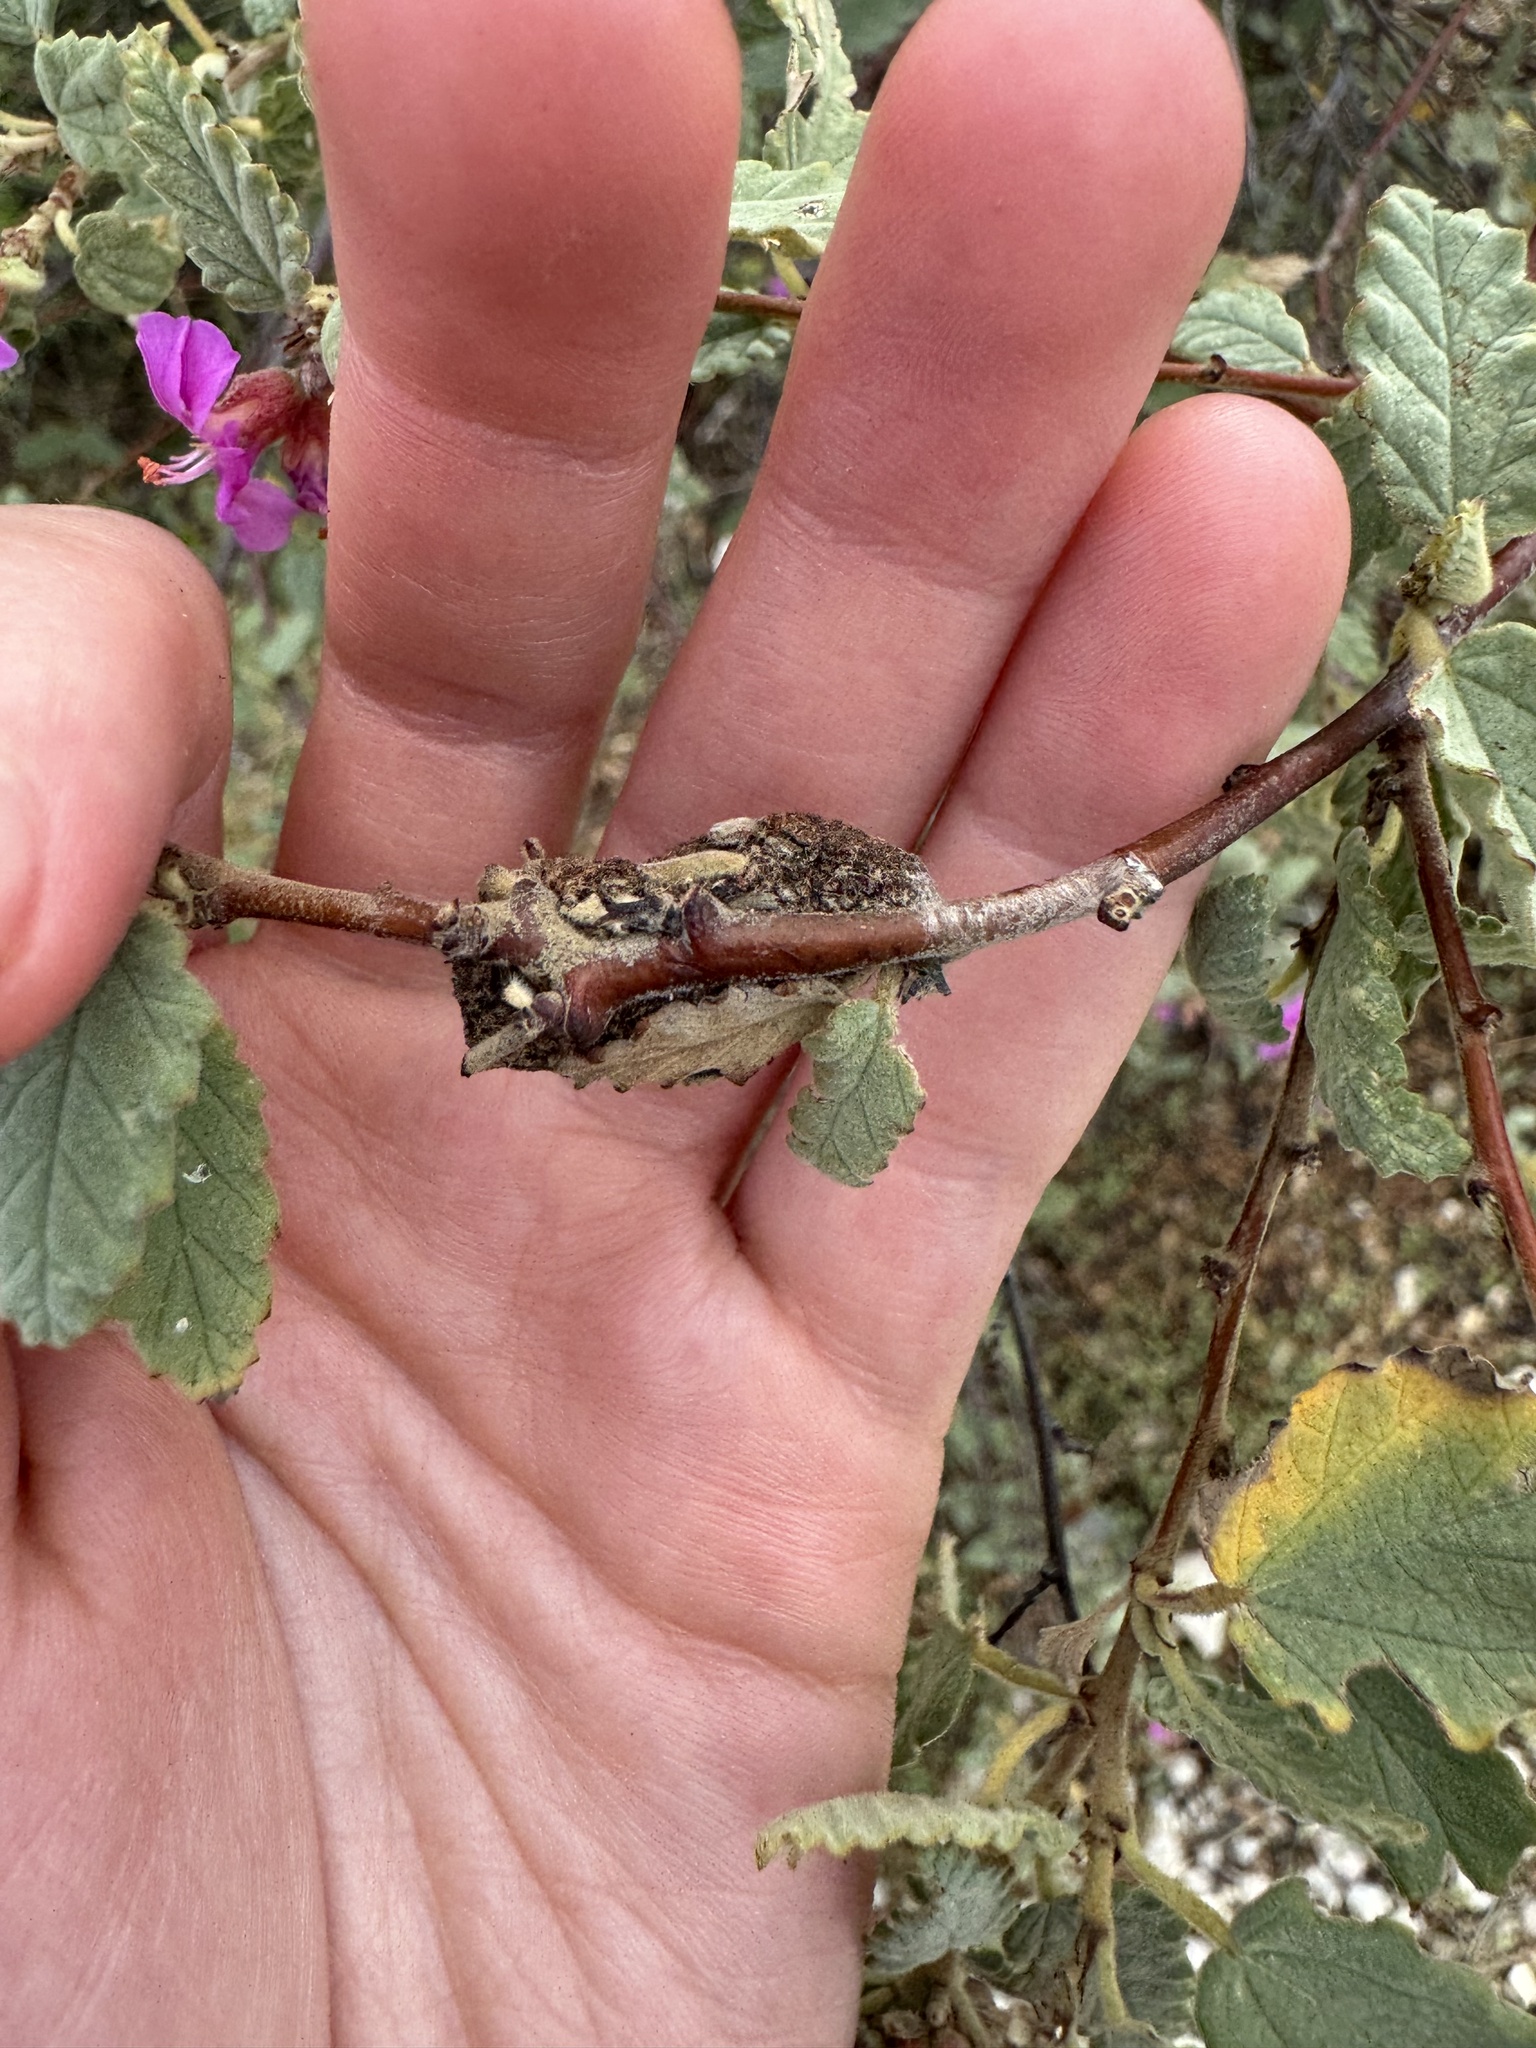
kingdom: Plantae
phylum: Tracheophyta
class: Magnoliopsida
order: Malvales
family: Malvaceae
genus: Melochia
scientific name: Melochia tomentosa
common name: Black torch
